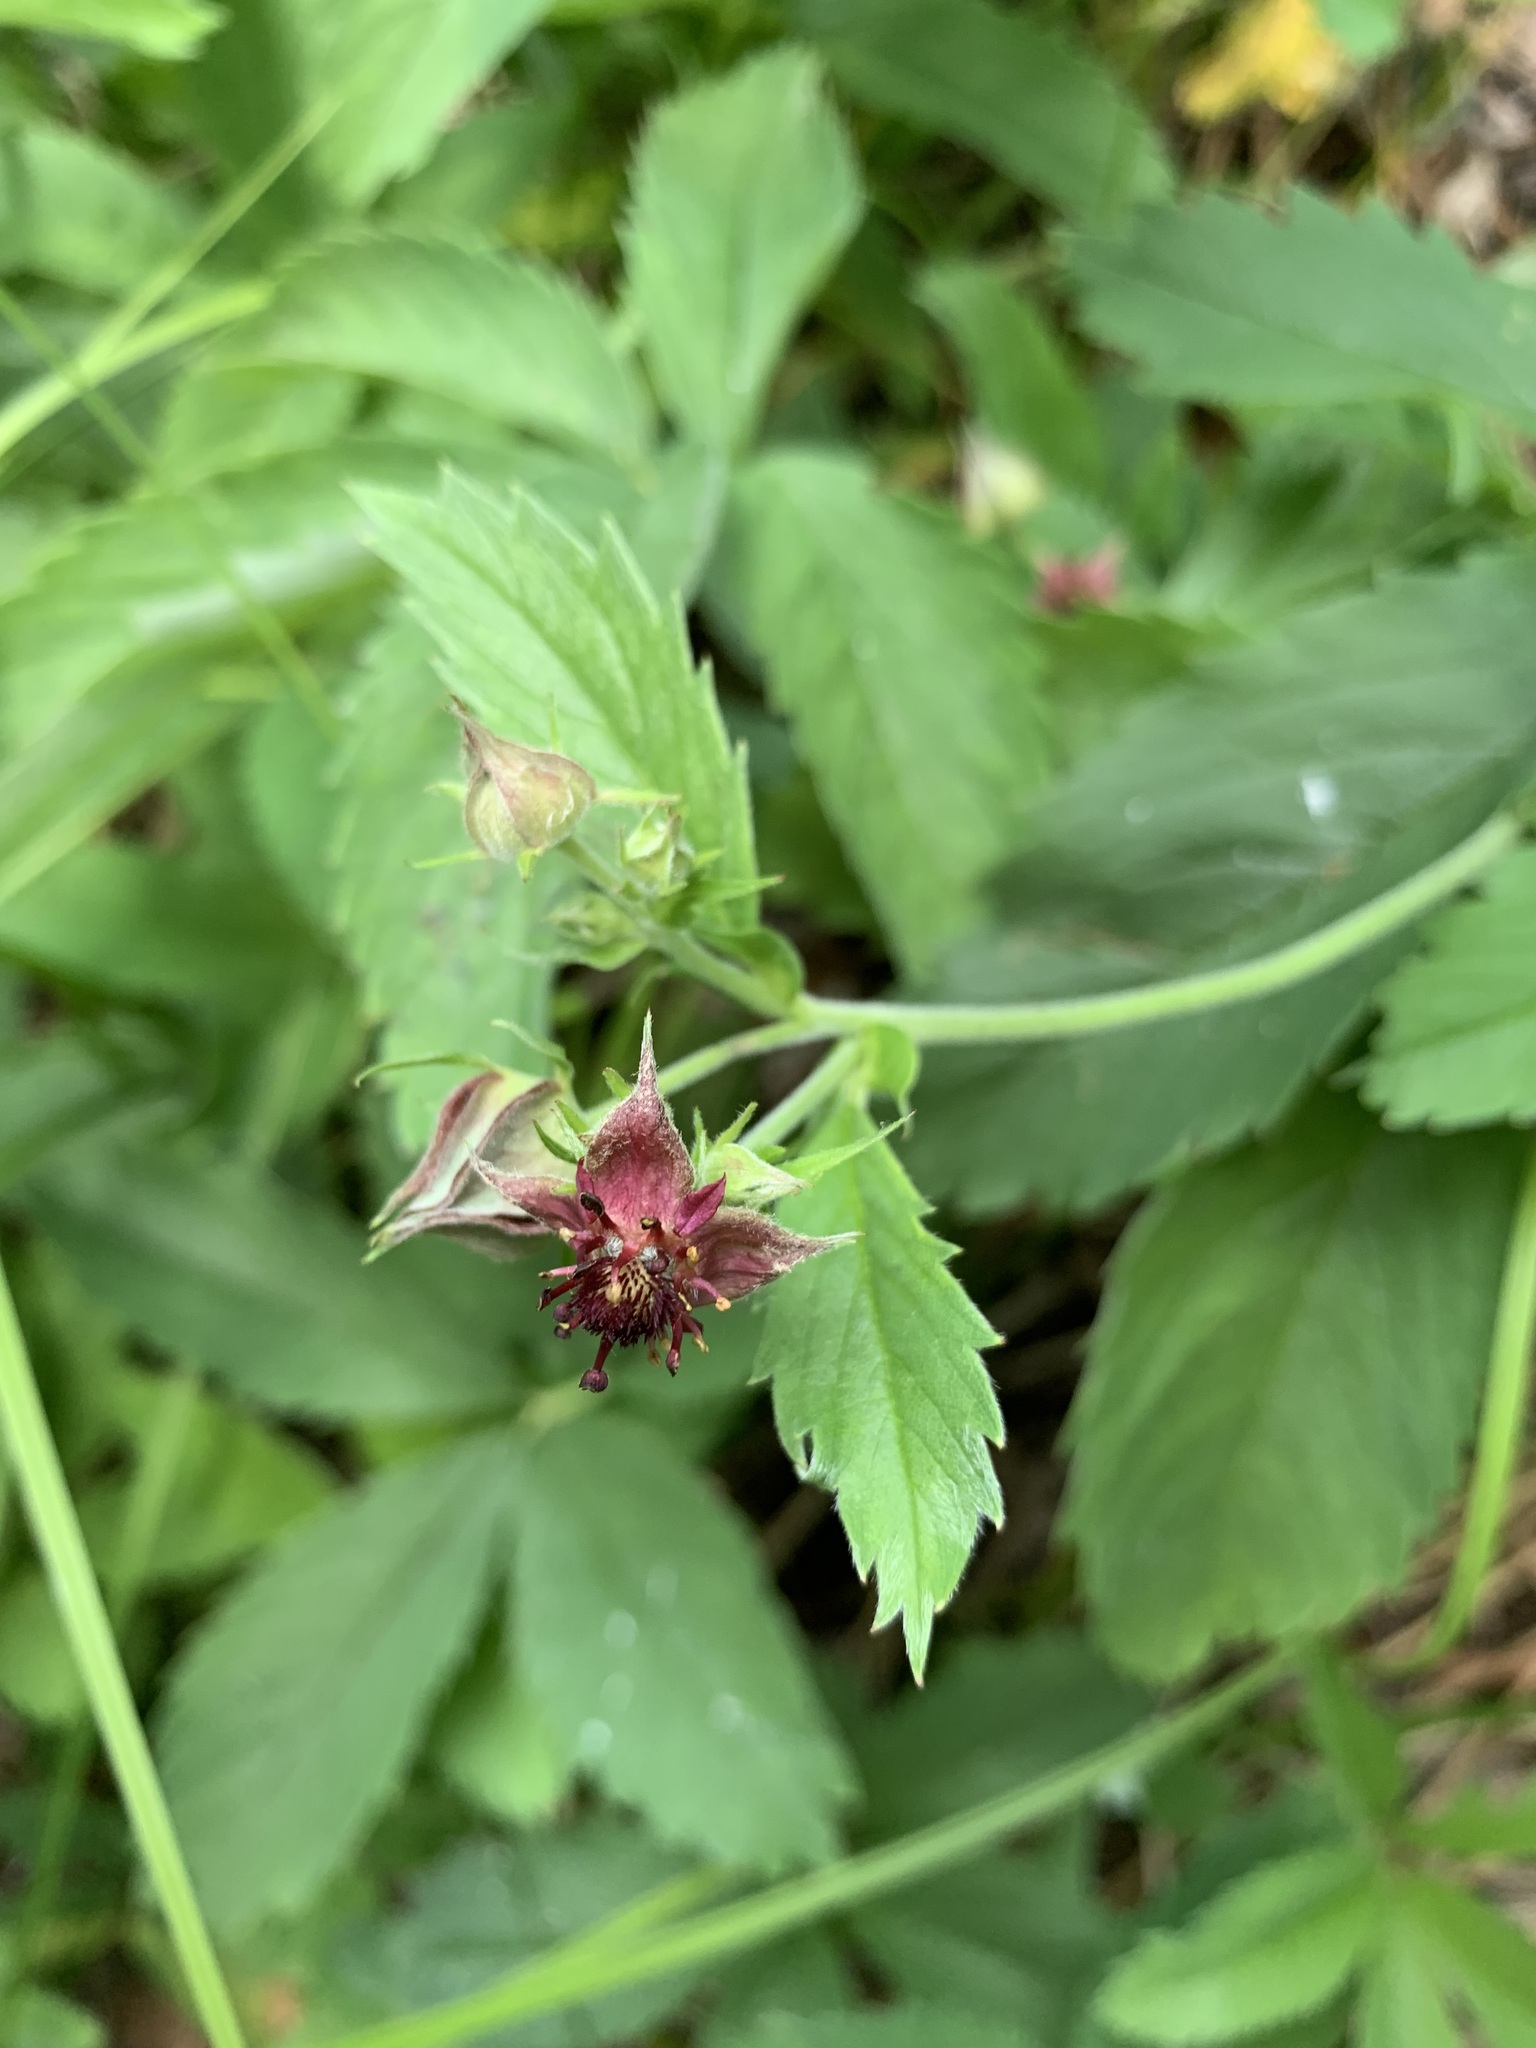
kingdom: Plantae
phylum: Tracheophyta
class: Magnoliopsida
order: Rosales
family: Rosaceae
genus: Comarum
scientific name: Comarum palustre
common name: Marsh cinquefoil
